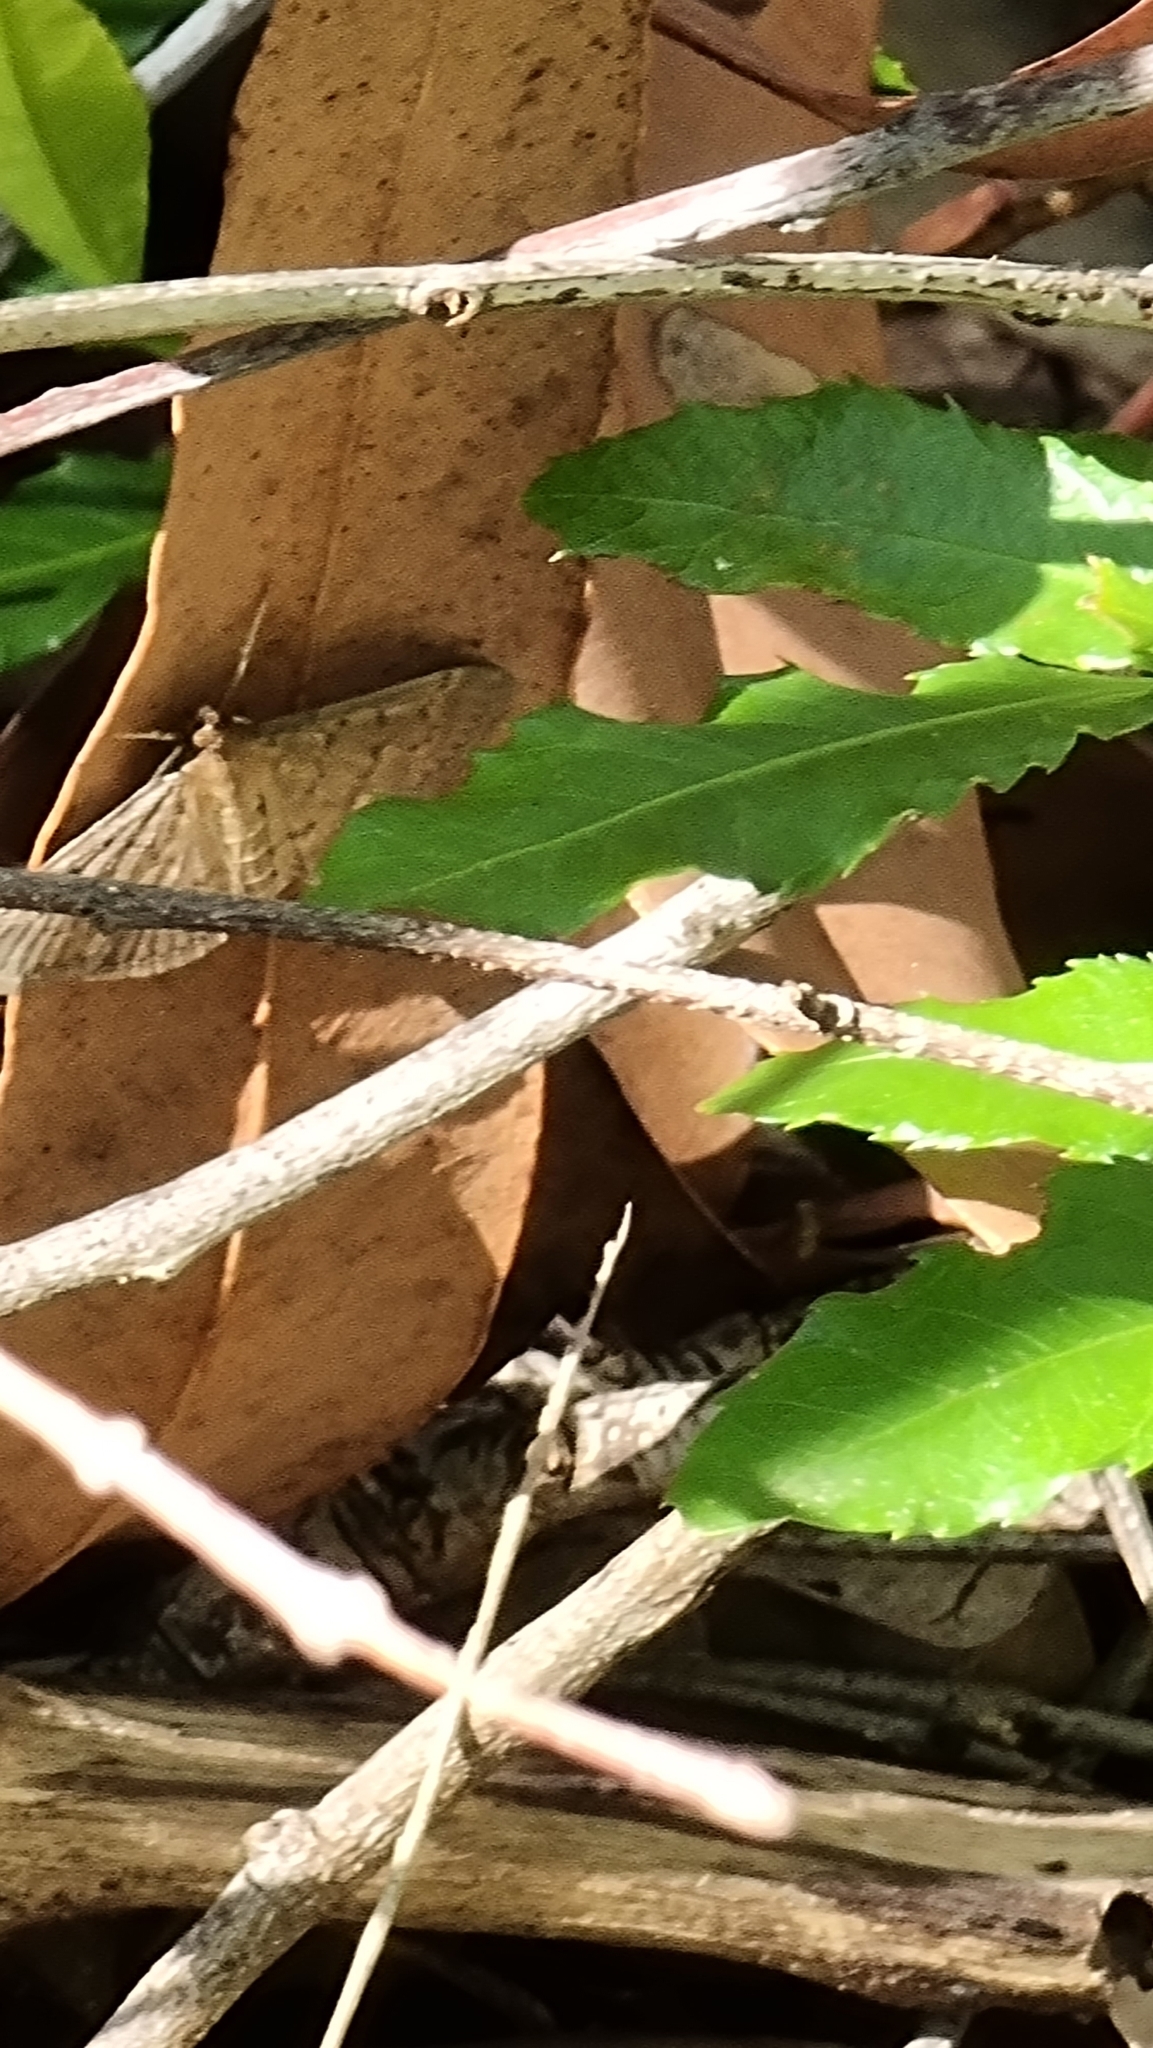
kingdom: Animalia
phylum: Arthropoda
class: Insecta
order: Lepidoptera
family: Crambidae
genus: Herpetogramma
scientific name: Herpetogramma licarsisalis
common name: Grass webworm
